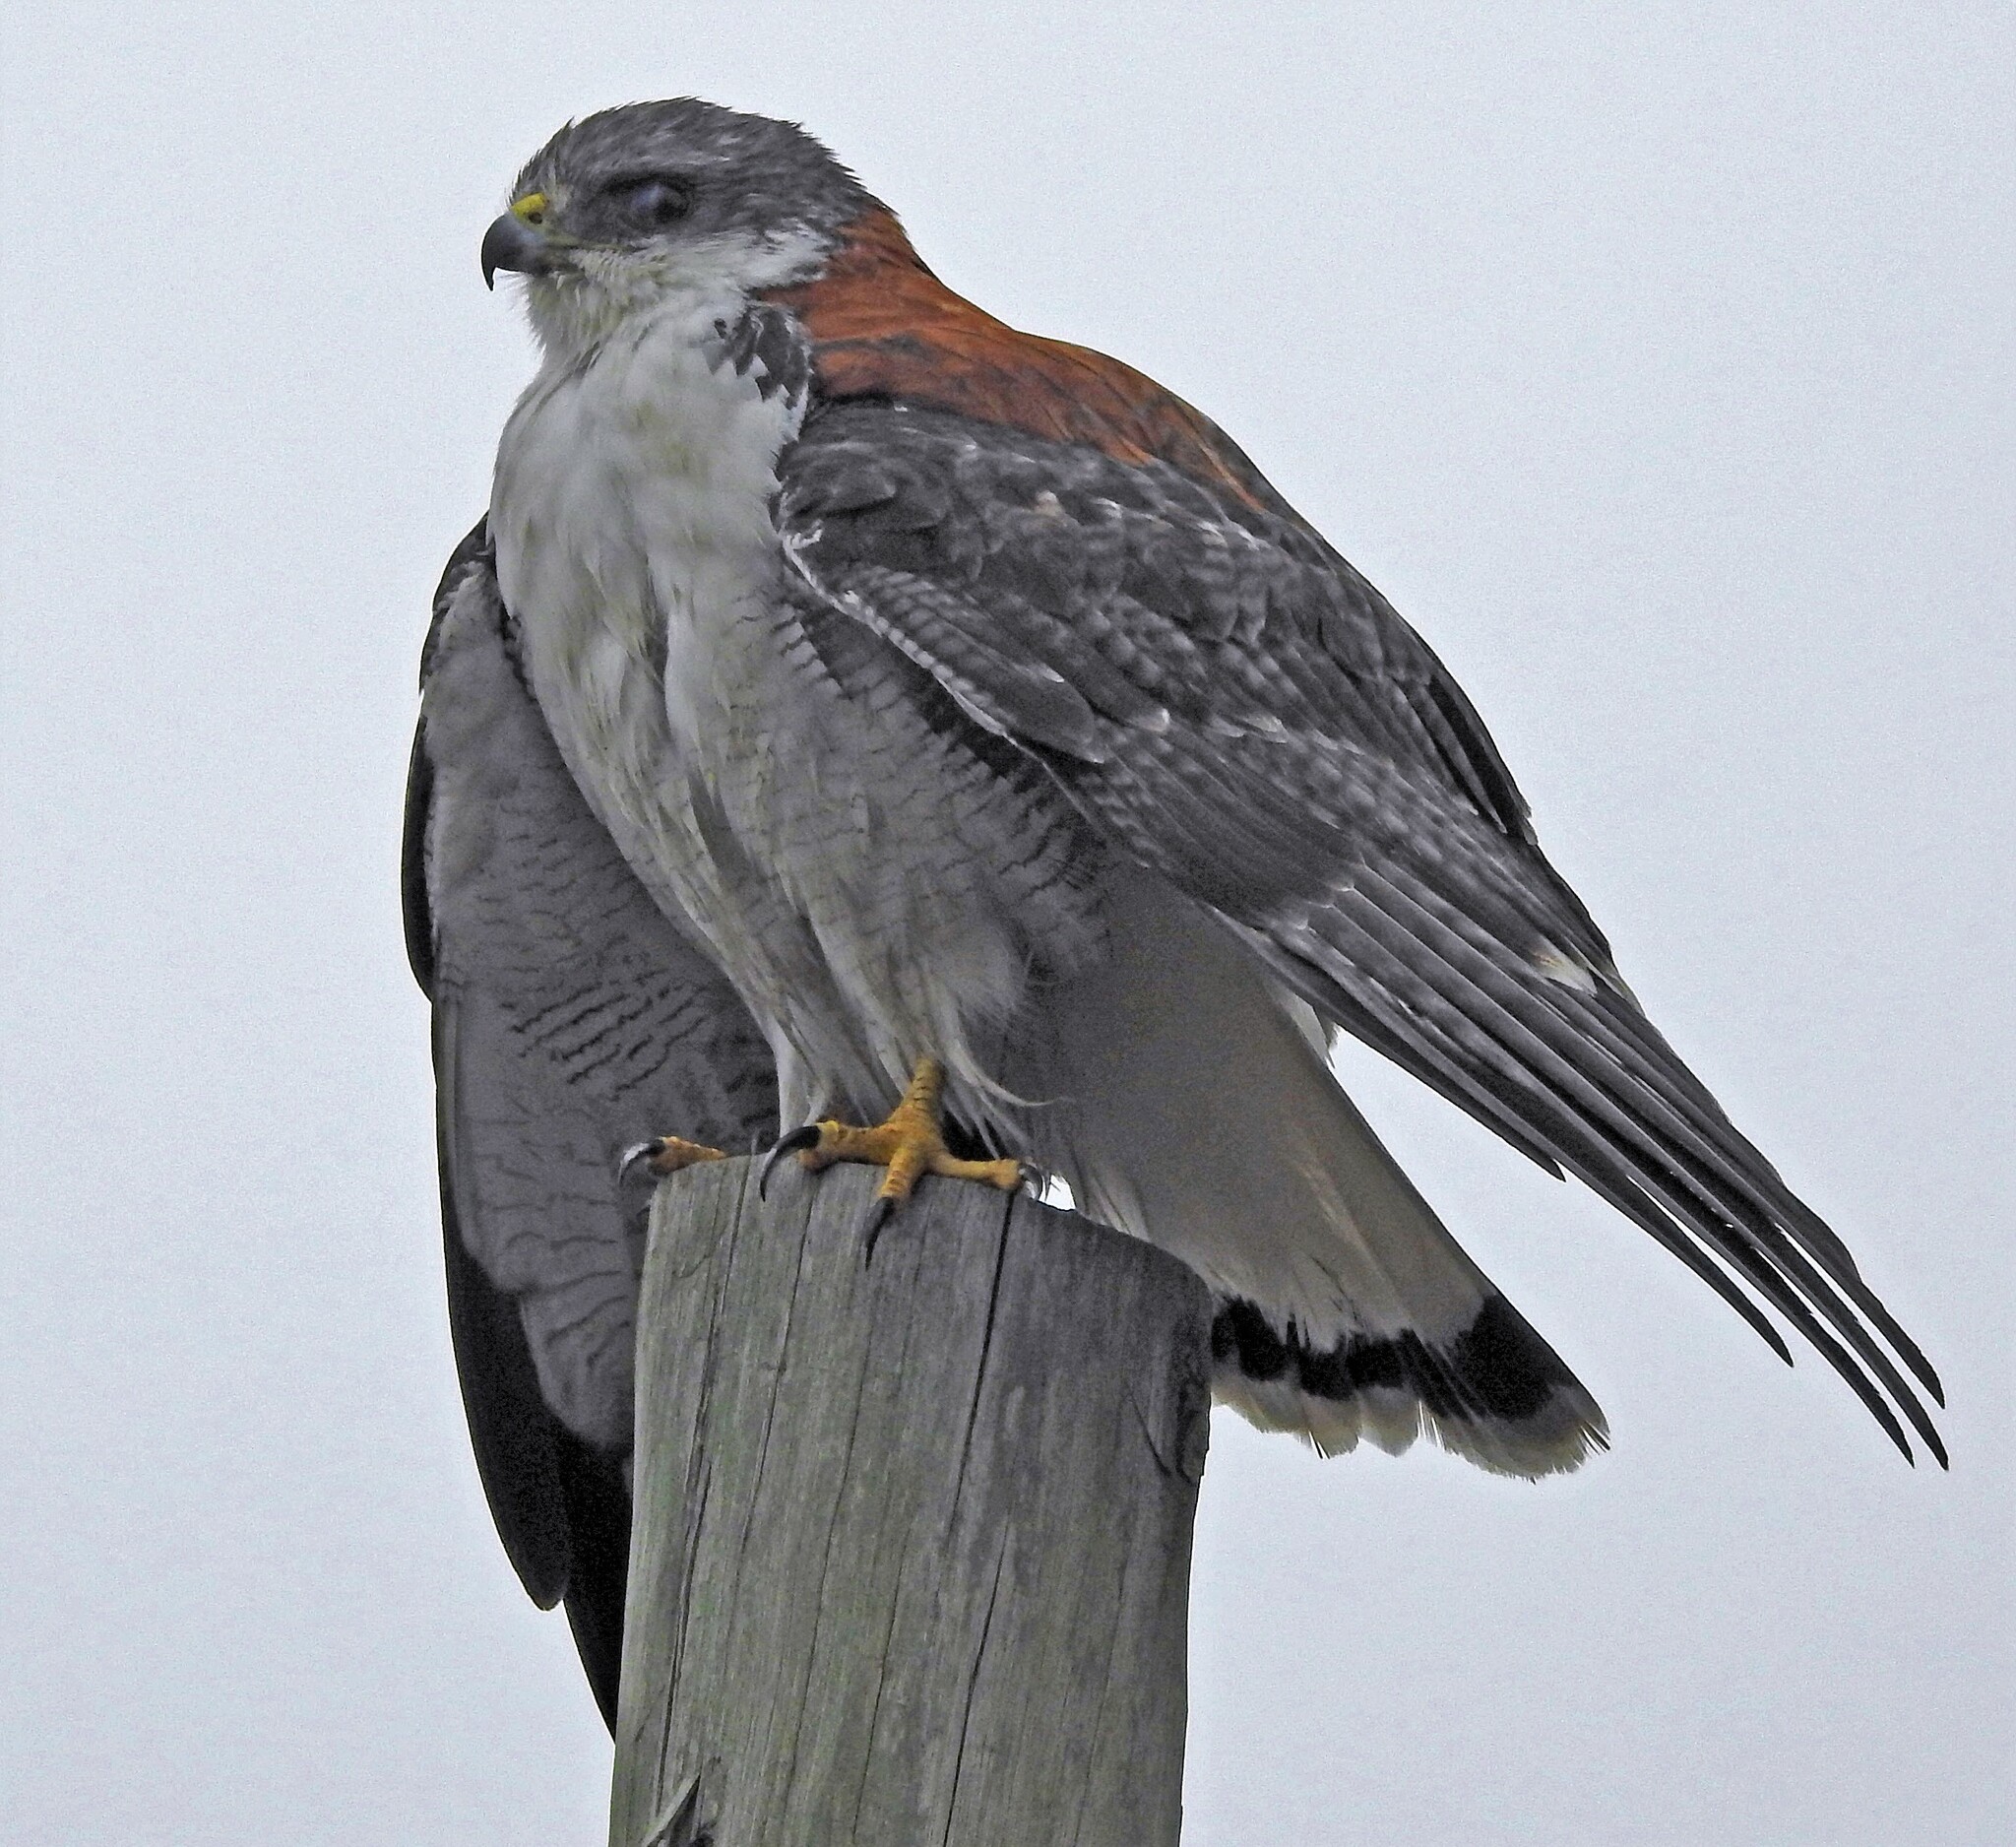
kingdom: Animalia
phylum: Chordata
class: Aves
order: Accipitriformes
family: Accipitridae
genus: Buteo
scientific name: Buteo polyosoma
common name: Variable hawk
